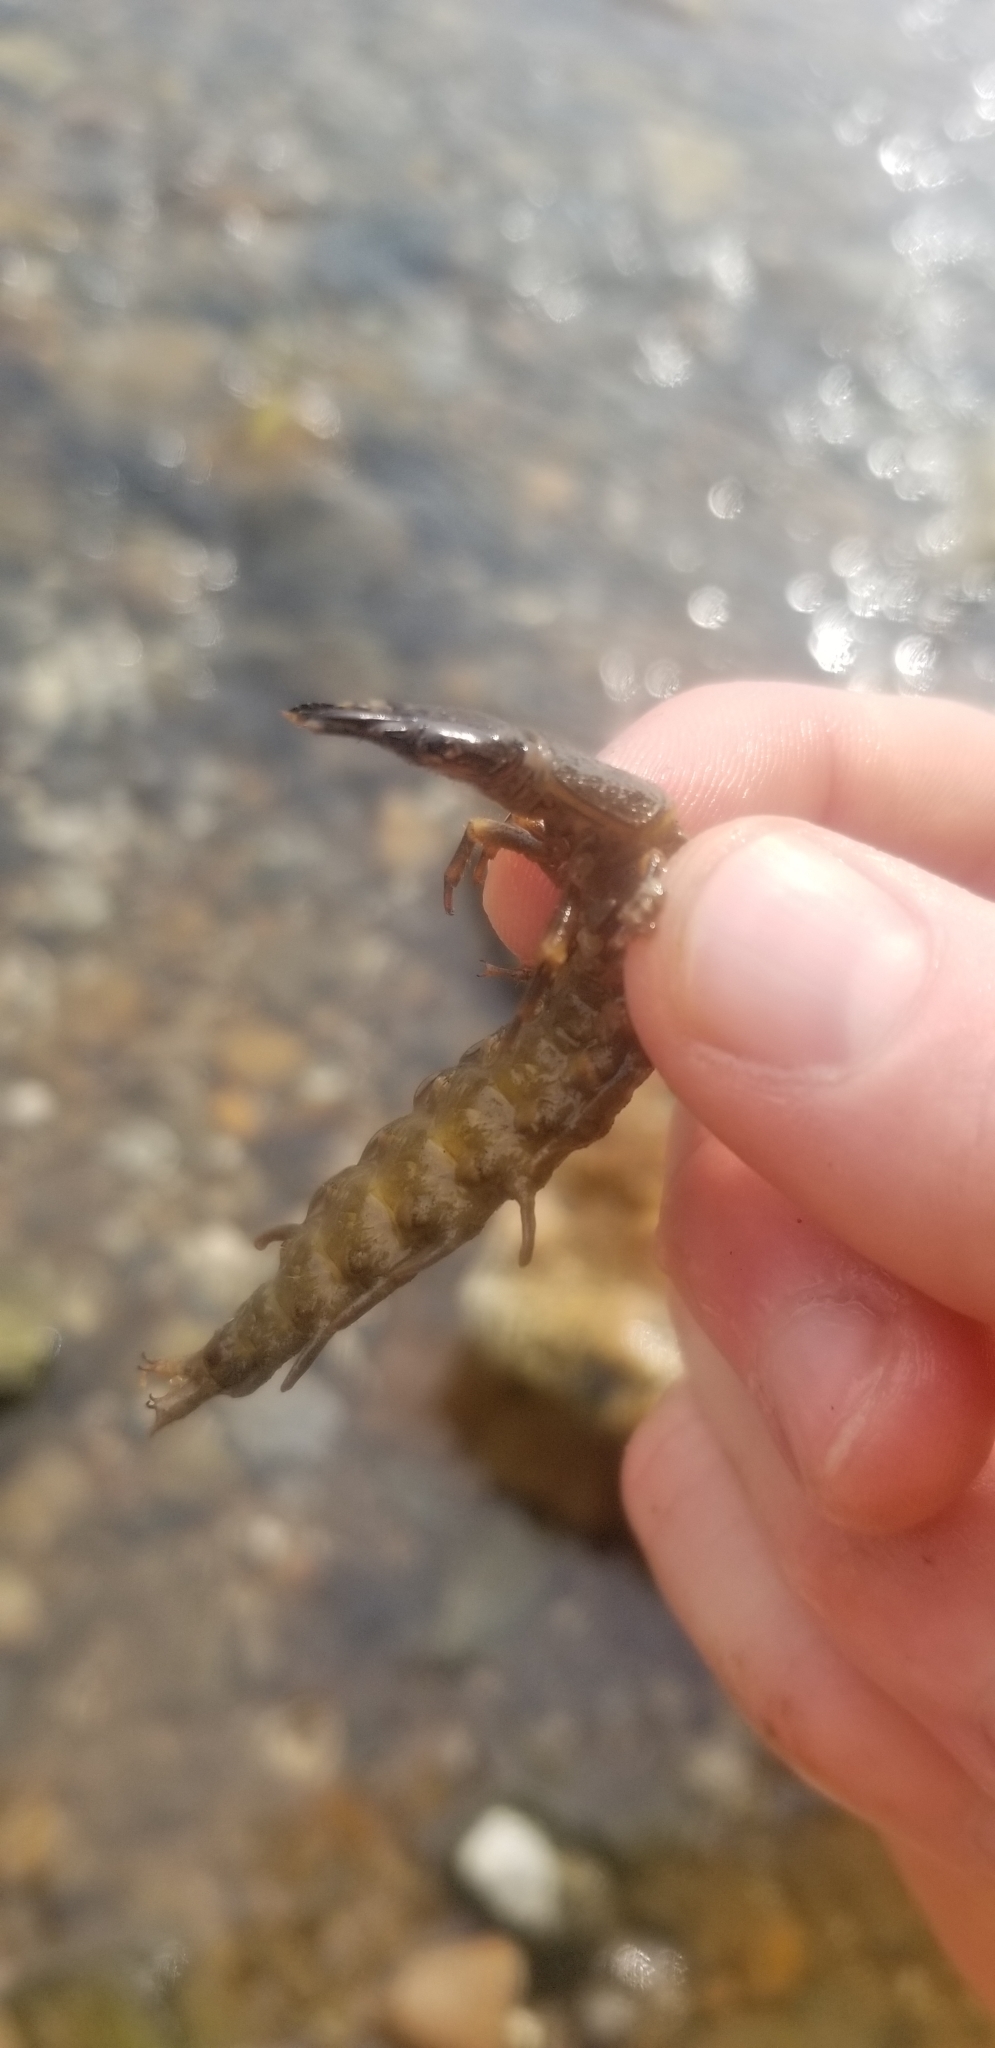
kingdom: Animalia
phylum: Arthropoda
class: Insecta
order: Megaloptera
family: Corydalidae
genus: Corydalus
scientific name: Corydalus cornutus
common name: Dobsonfly
